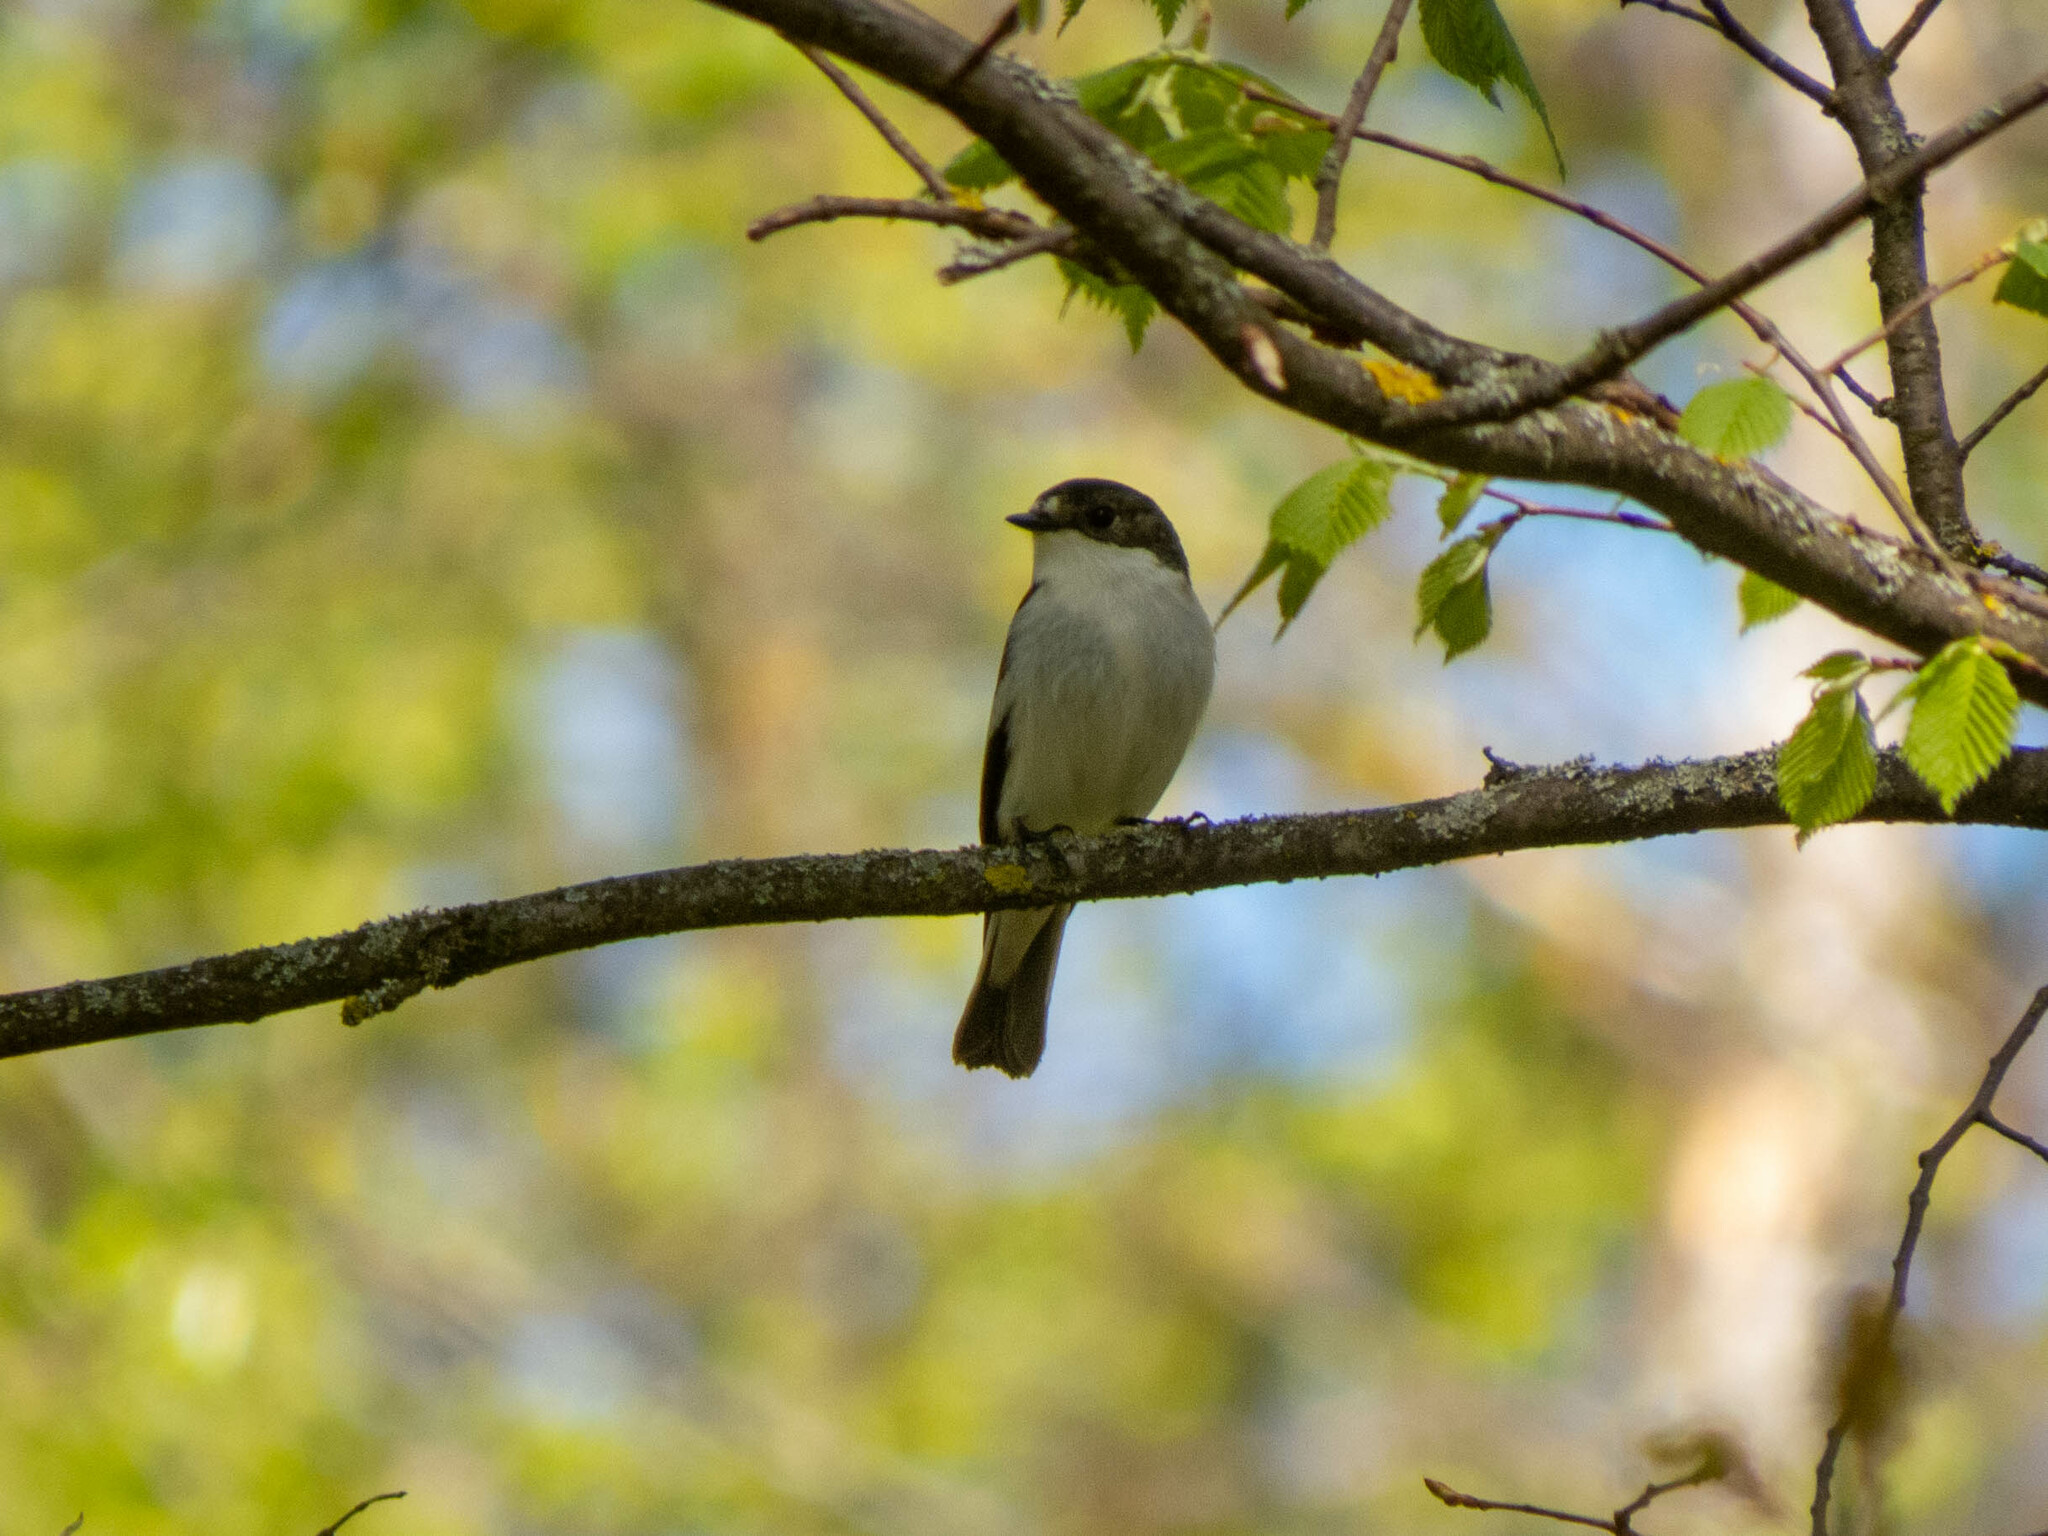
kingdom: Animalia
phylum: Chordata
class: Aves
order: Passeriformes
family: Muscicapidae
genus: Ficedula
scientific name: Ficedula hypoleuca
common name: European pied flycatcher
